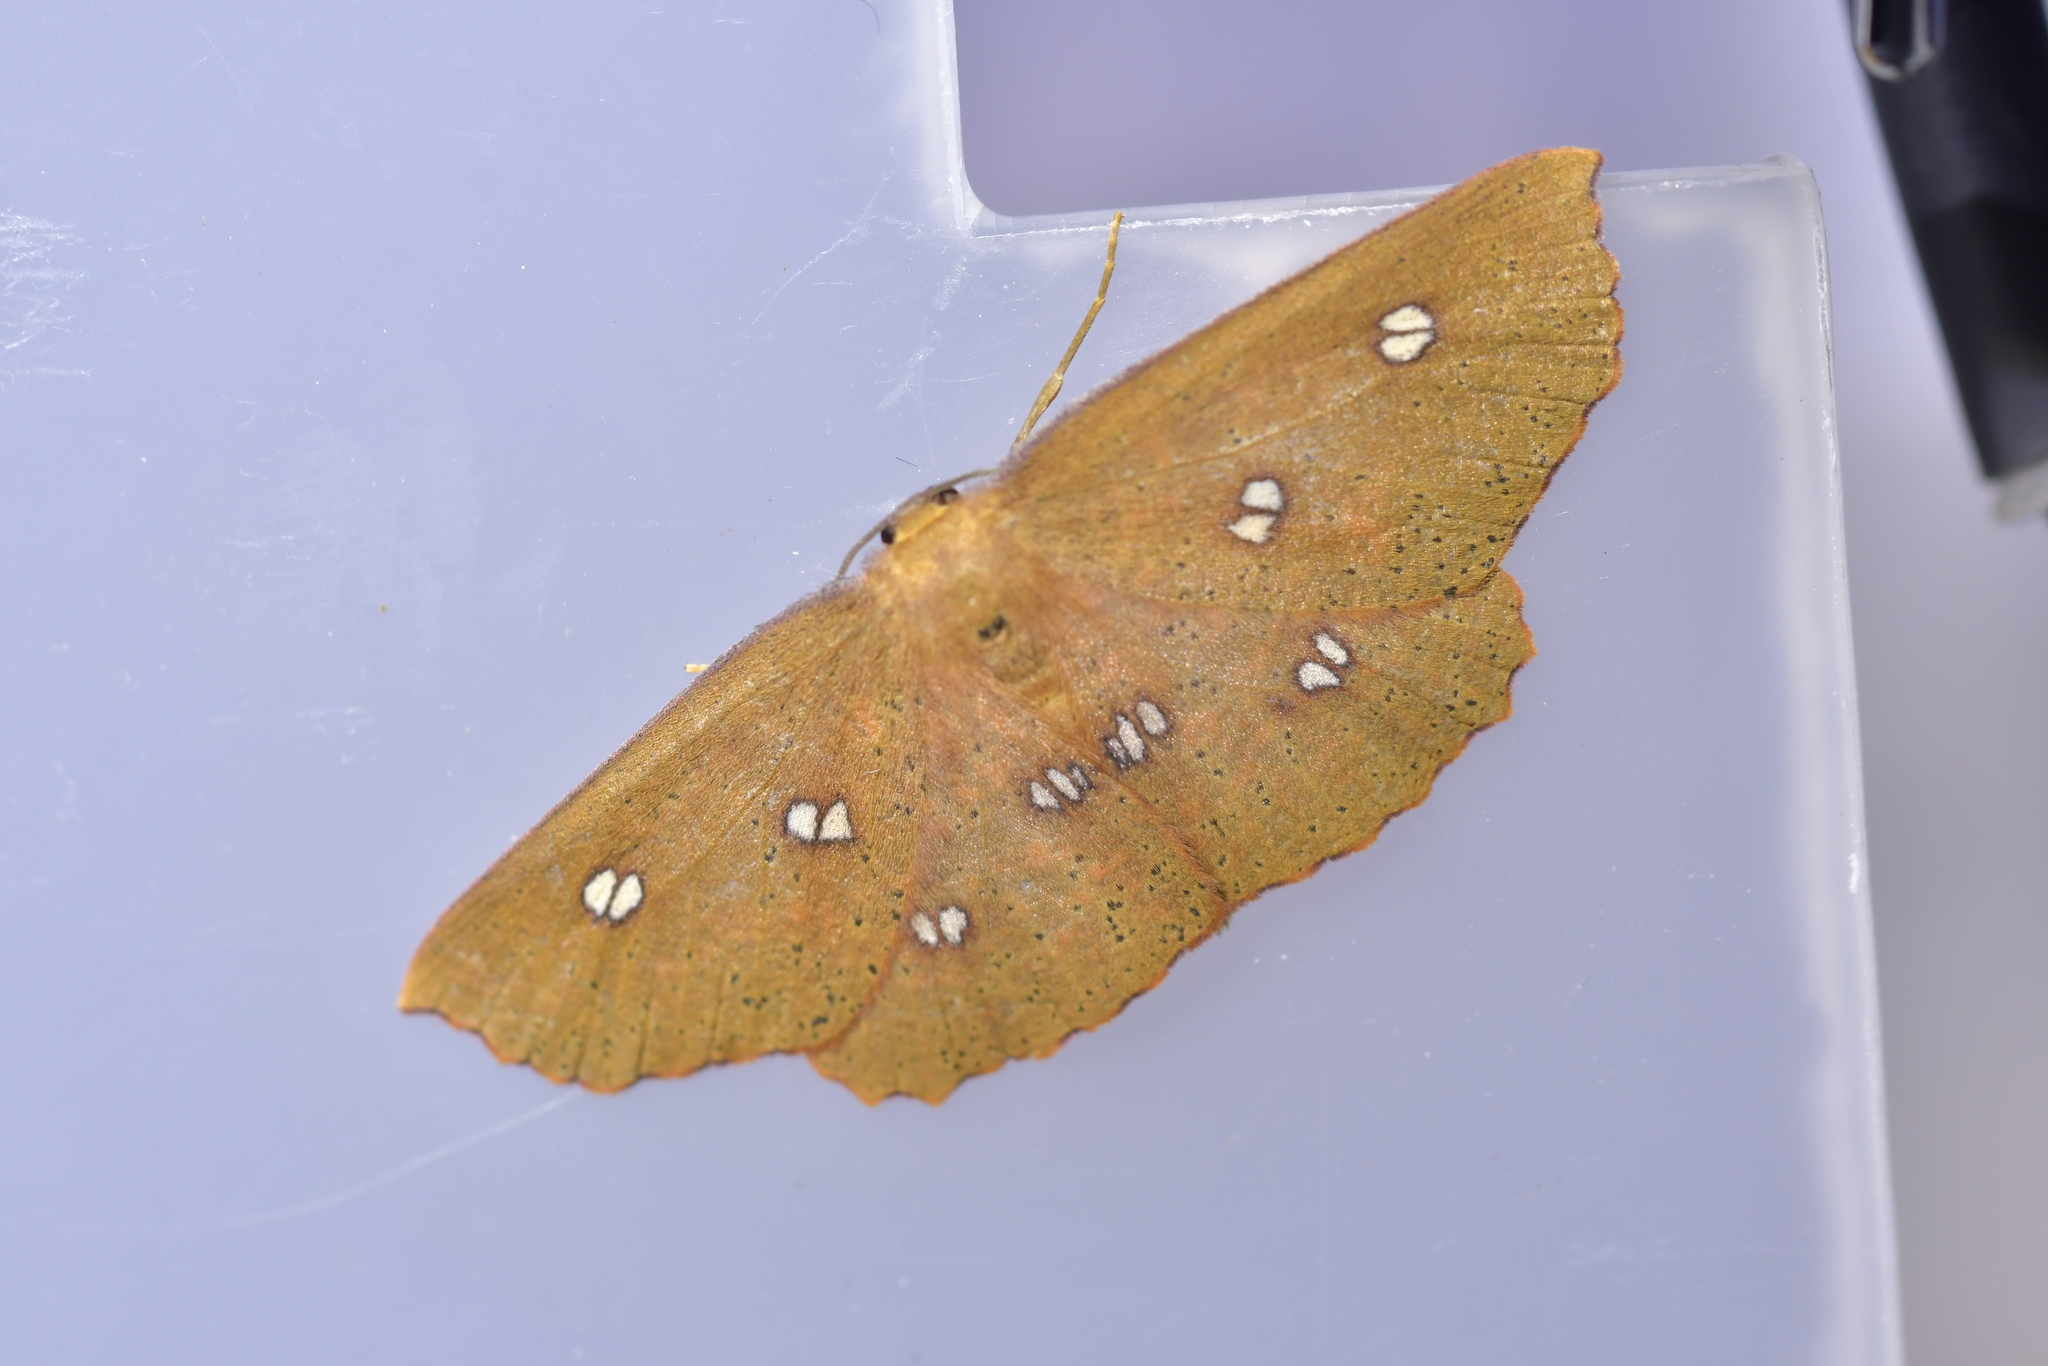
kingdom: Animalia
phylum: Arthropoda
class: Insecta
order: Lepidoptera
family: Geometridae
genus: Xyridacma
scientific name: Xyridacma alectoraria
